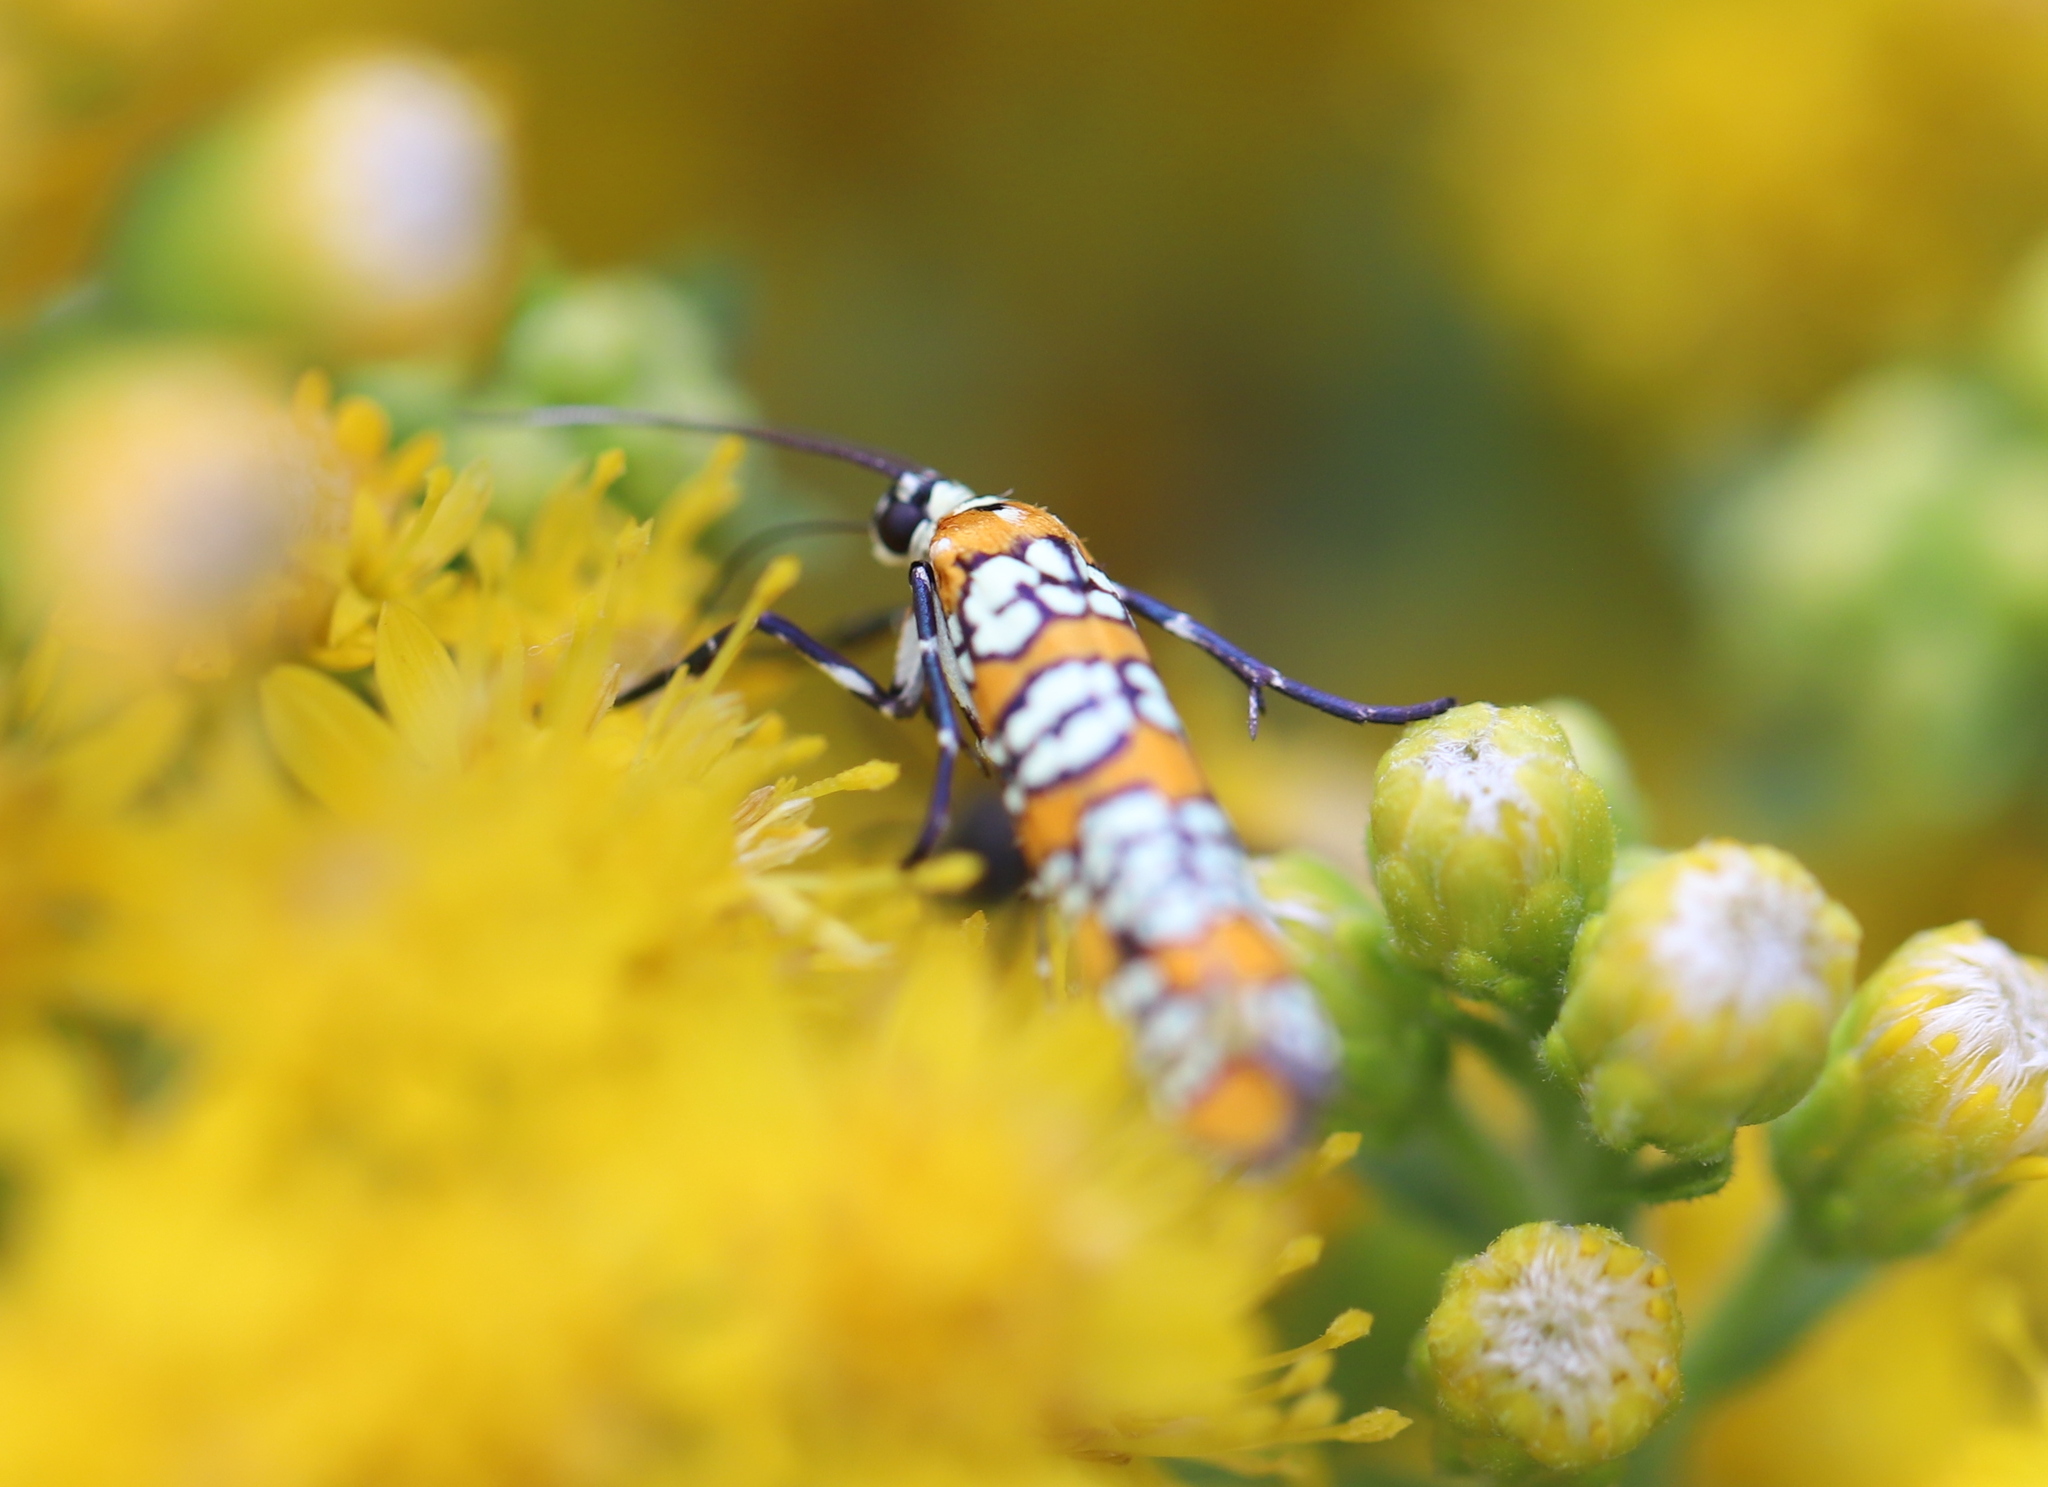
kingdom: Animalia
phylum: Arthropoda
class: Insecta
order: Lepidoptera
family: Attevidae
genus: Atteva
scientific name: Atteva punctella
